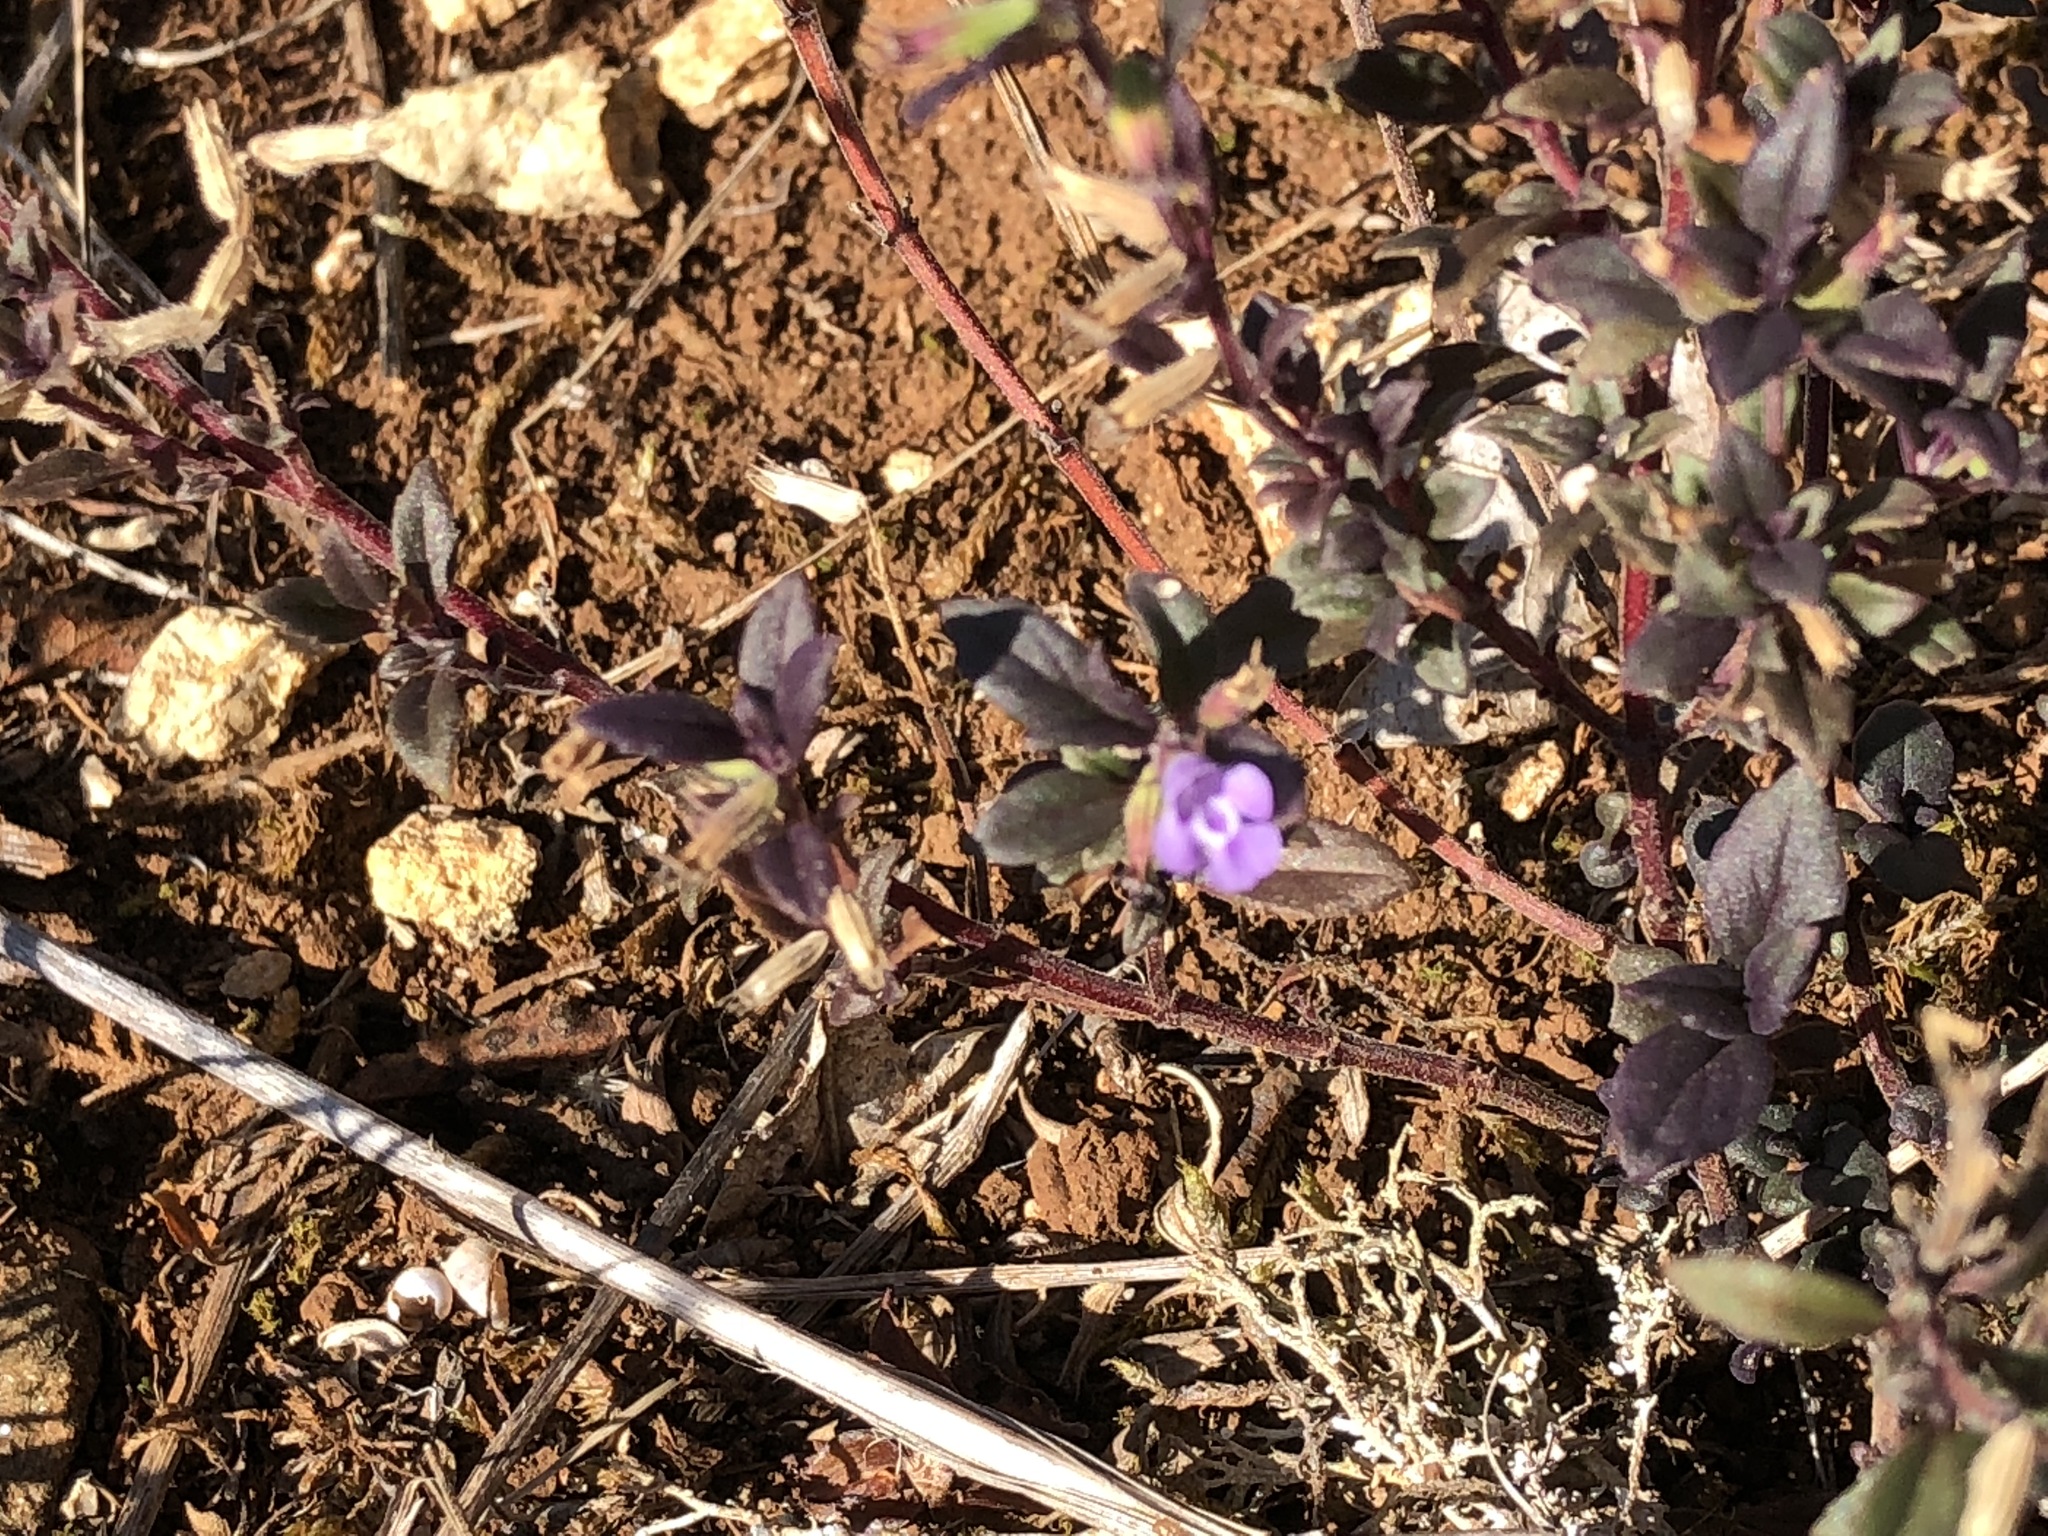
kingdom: Plantae
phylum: Tracheophyta
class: Magnoliopsida
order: Lamiales
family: Lamiaceae
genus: Clinopodium
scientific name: Clinopodium acinos
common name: Basil thyme
